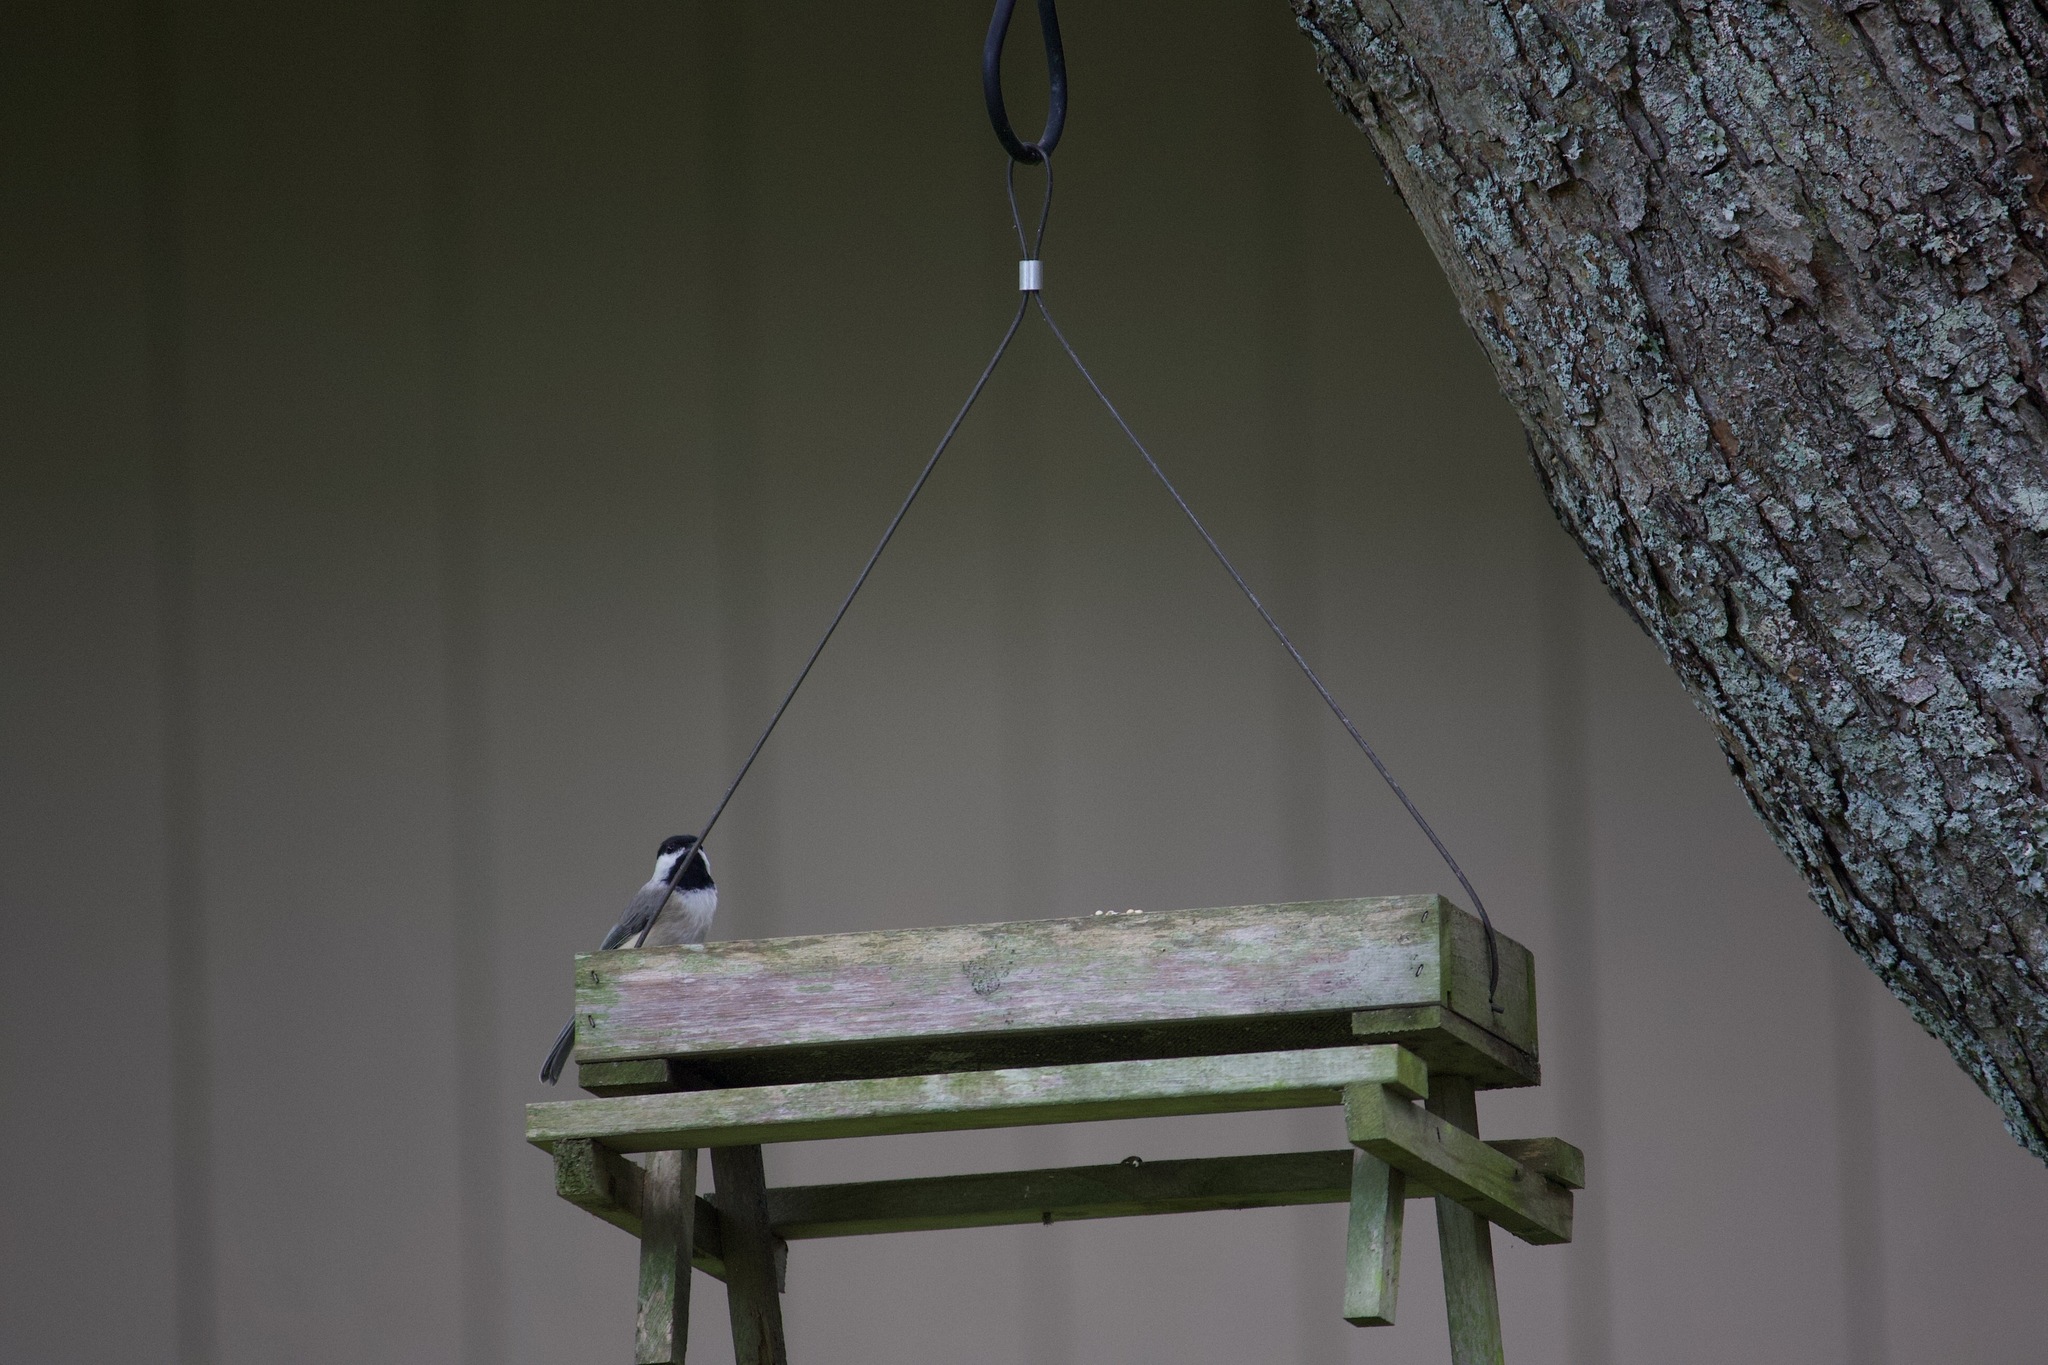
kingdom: Animalia
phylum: Chordata
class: Aves
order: Passeriformes
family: Paridae
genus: Poecile
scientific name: Poecile carolinensis
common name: Carolina chickadee
